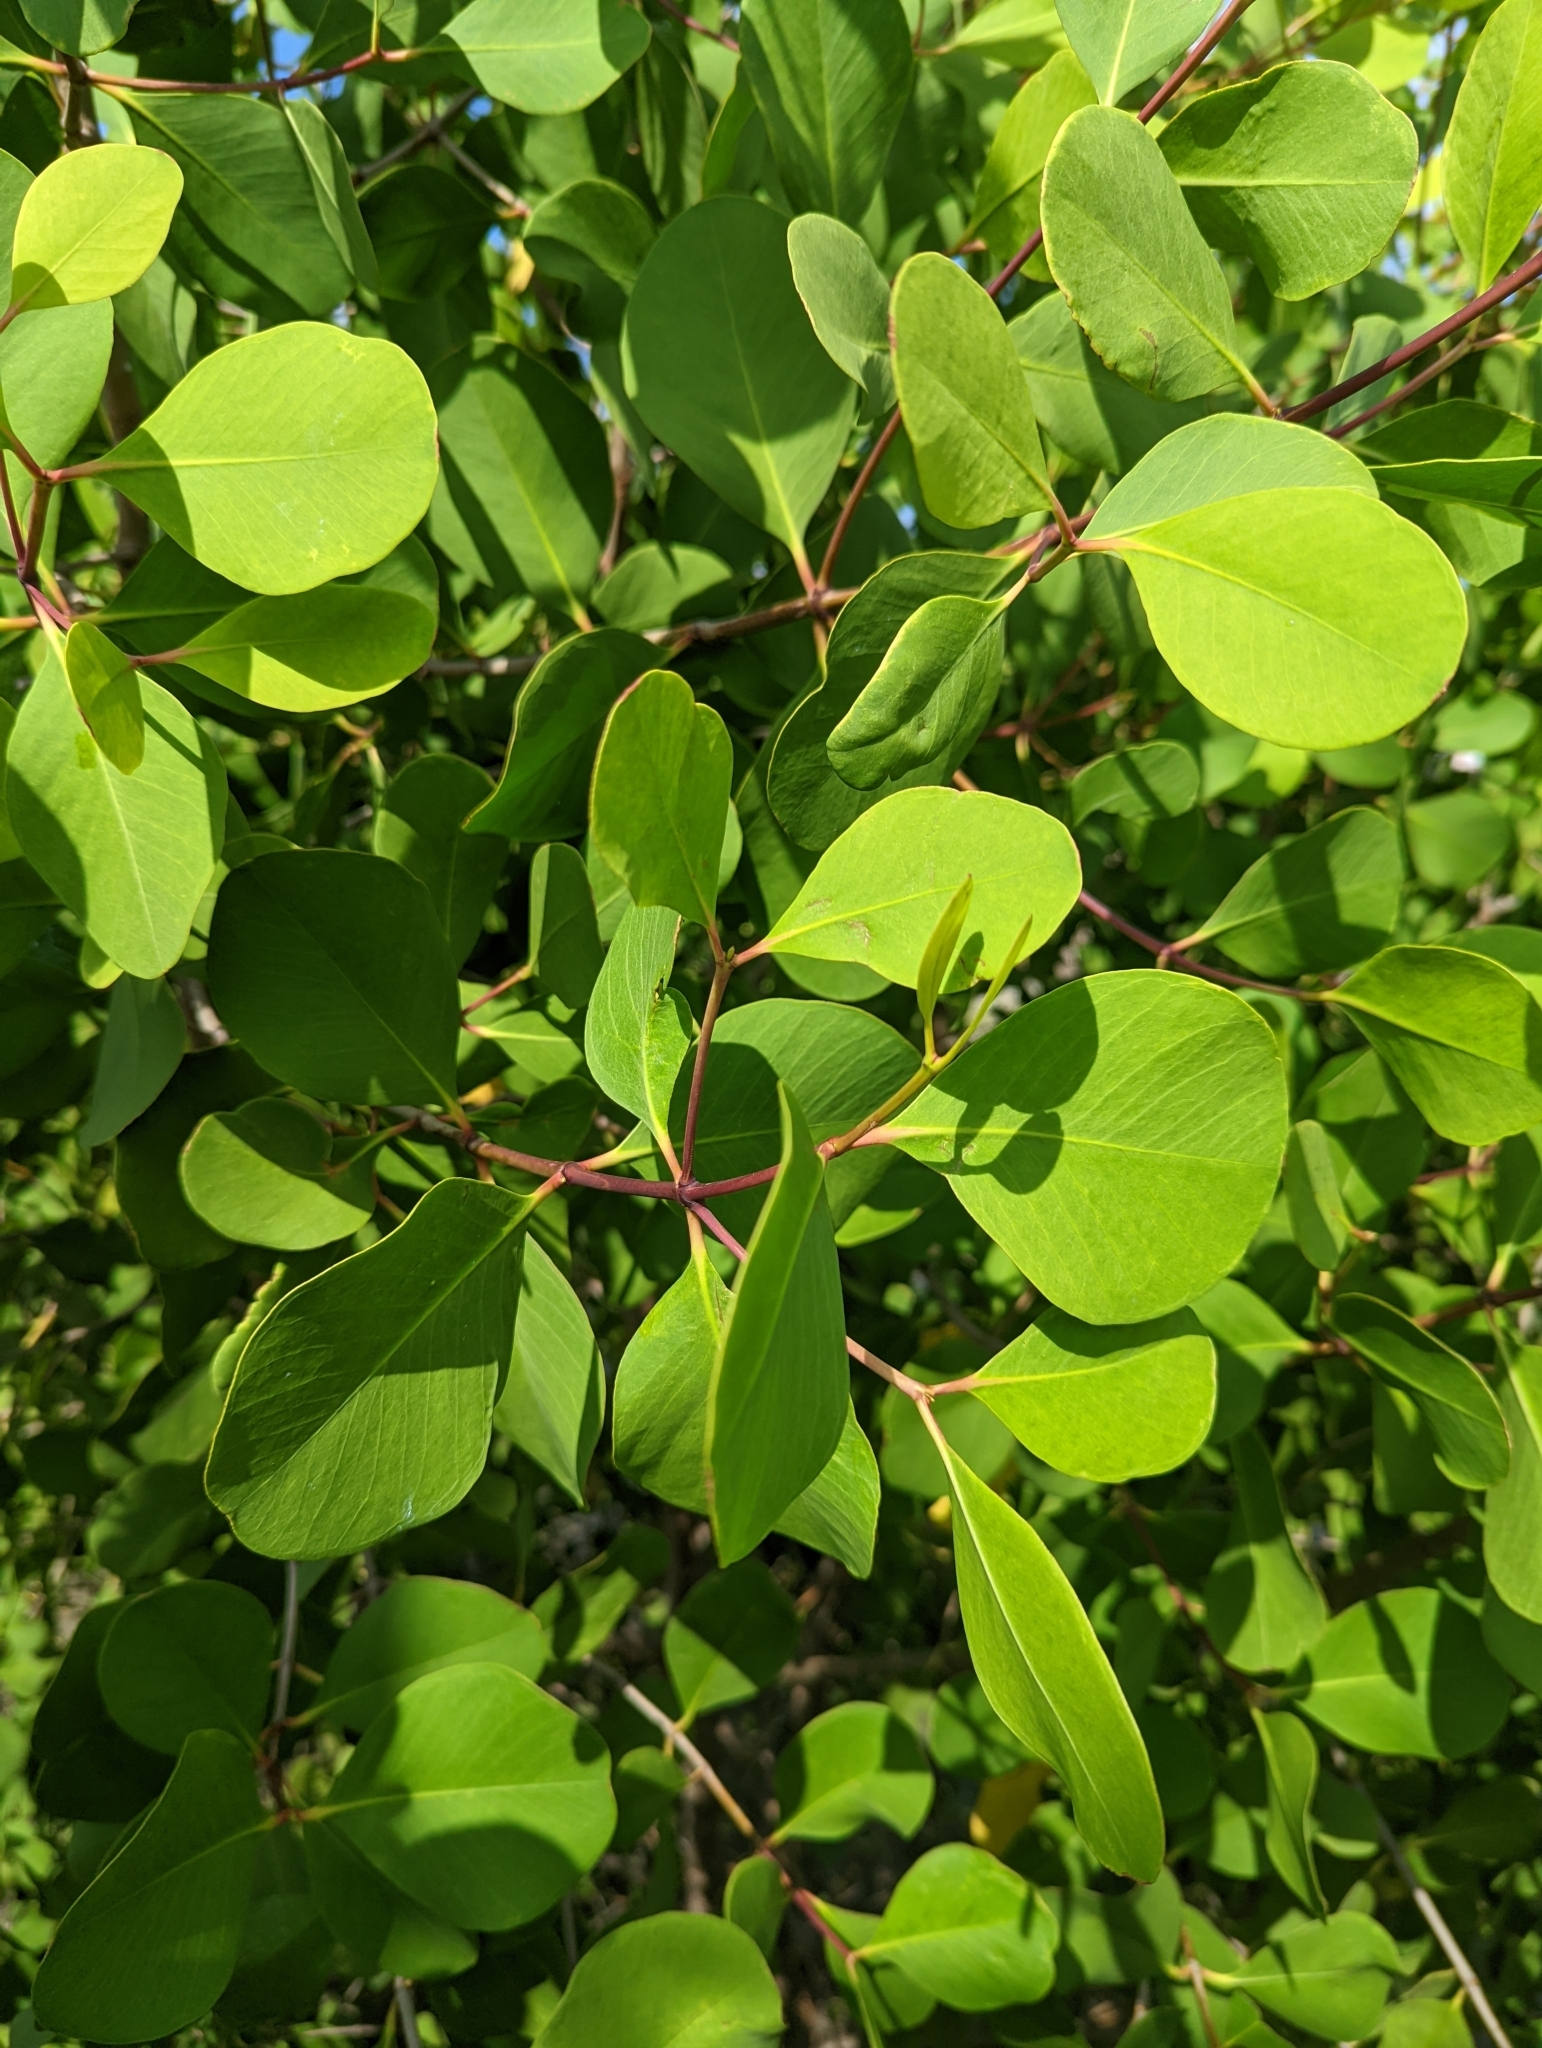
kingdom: Plantae
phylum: Tracheophyta
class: Magnoliopsida
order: Myrtales
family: Lythraceae
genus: Sonneratia
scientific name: Sonneratia alba
